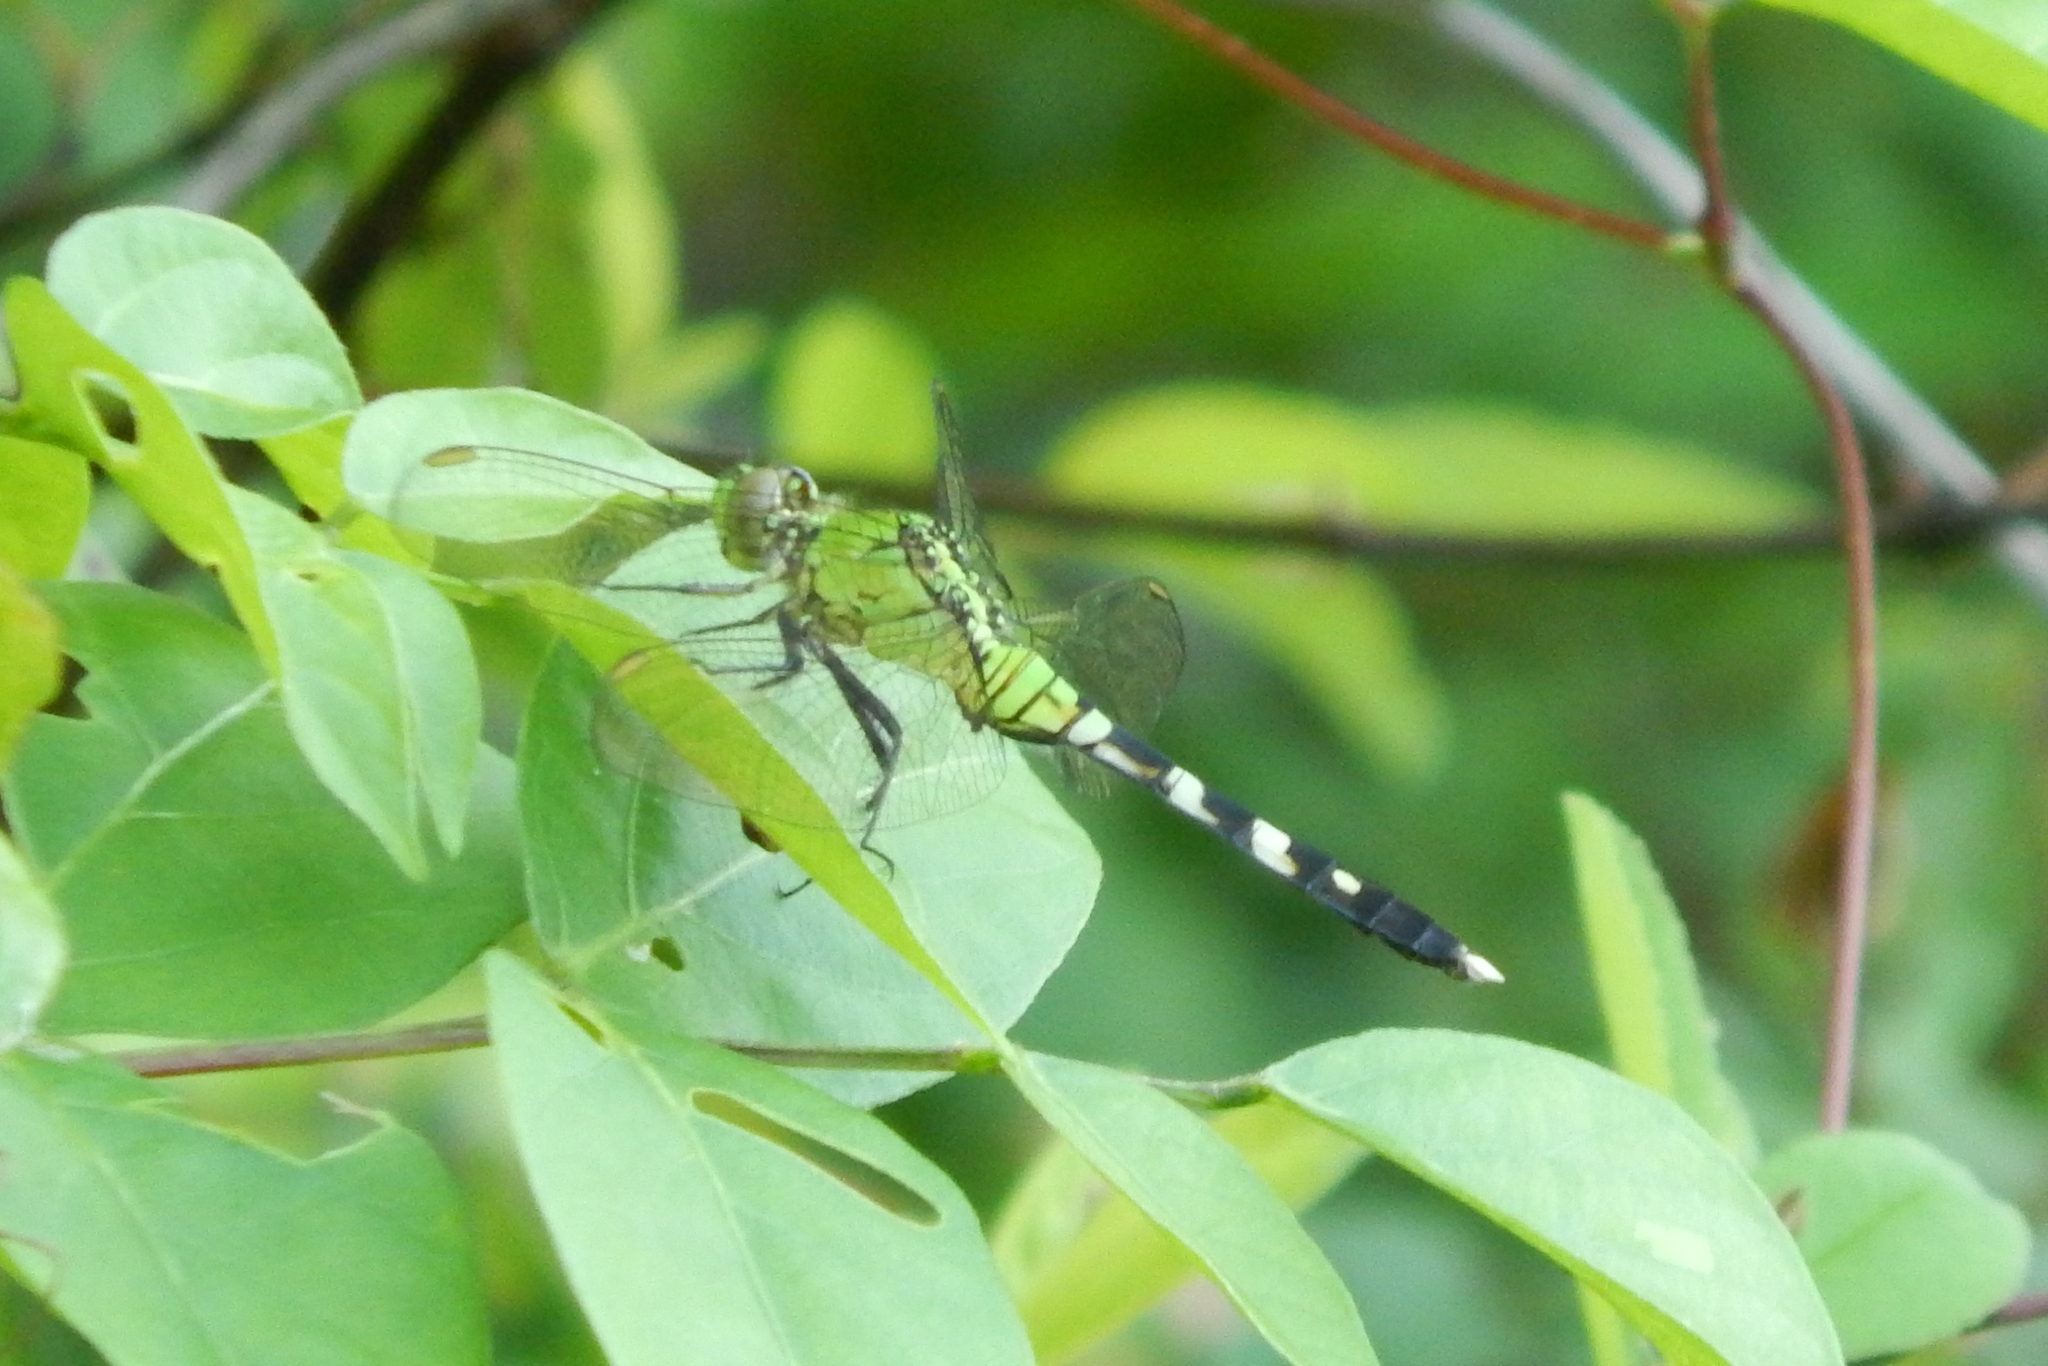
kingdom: Animalia
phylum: Arthropoda
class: Insecta
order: Odonata
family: Libellulidae
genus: Erythemis
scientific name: Erythemis simplicicollis
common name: Eastern pondhawk
